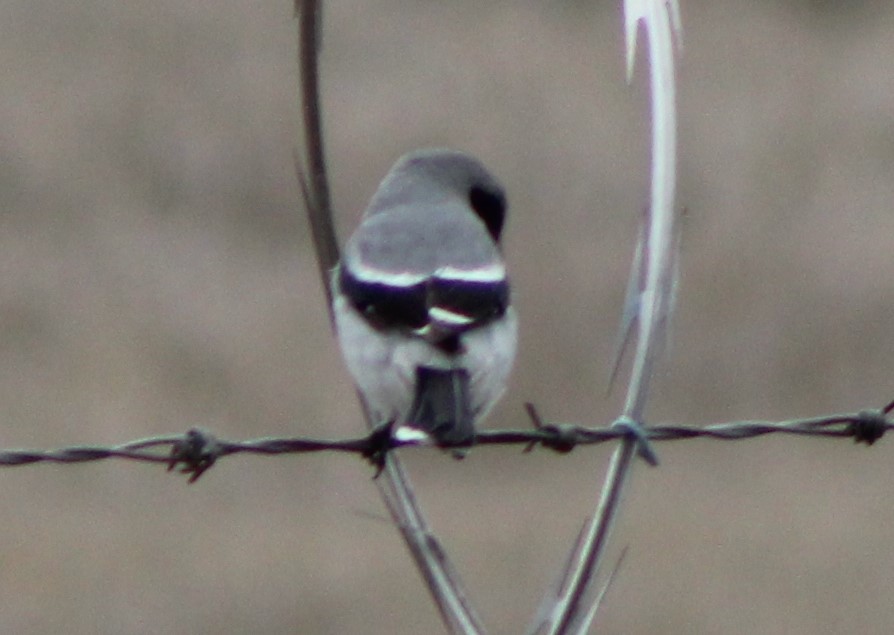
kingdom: Animalia
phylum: Chordata
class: Aves
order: Passeriformes
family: Laniidae
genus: Lanius
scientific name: Lanius ludovicianus
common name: Loggerhead shrike
